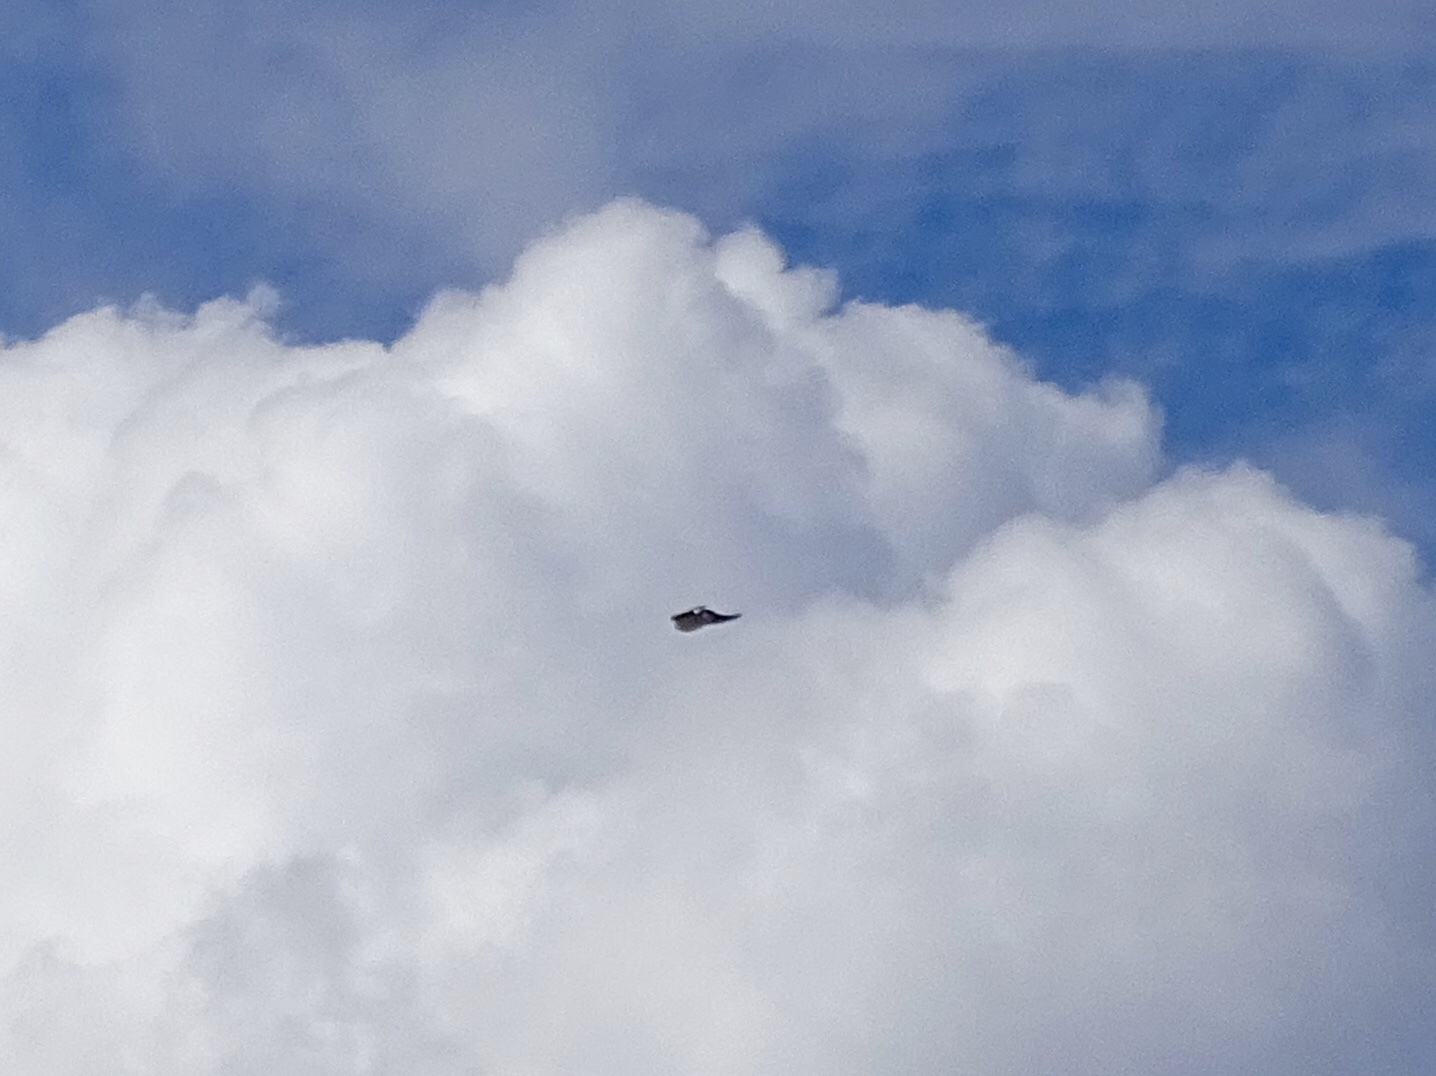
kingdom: Animalia
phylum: Chordata
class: Aves
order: Passeriformes
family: Hirundinidae
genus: Tachycineta
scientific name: Tachycineta bicolor
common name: Tree swallow
